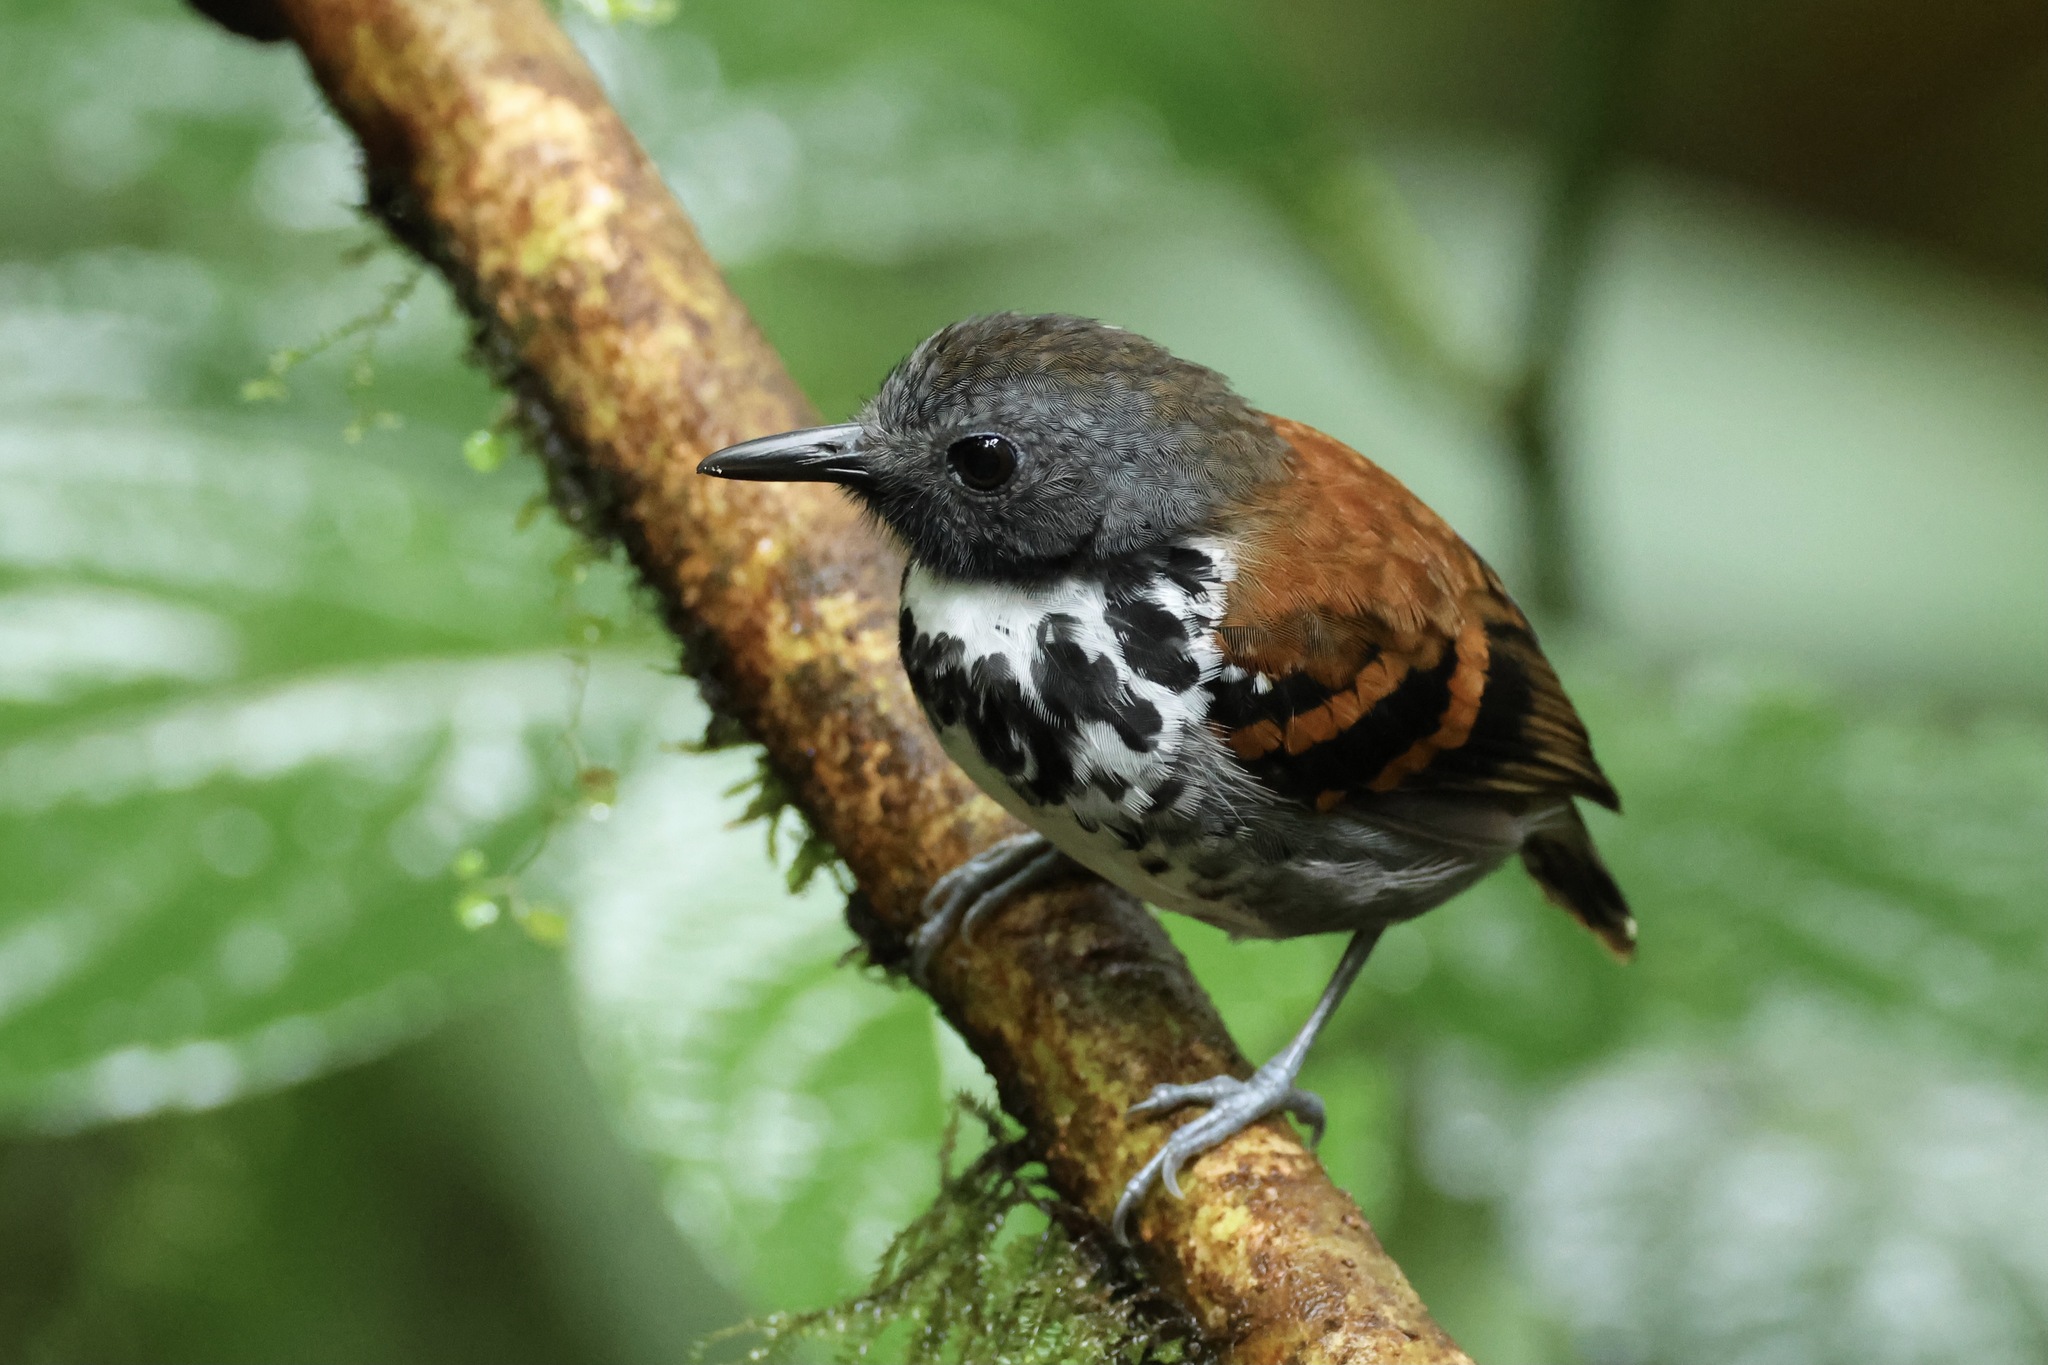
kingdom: Animalia
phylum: Chordata
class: Aves
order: Passeriformes
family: Thamnophilidae
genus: Hylophylax
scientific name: Hylophylax naevioides
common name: Spotted antbird
